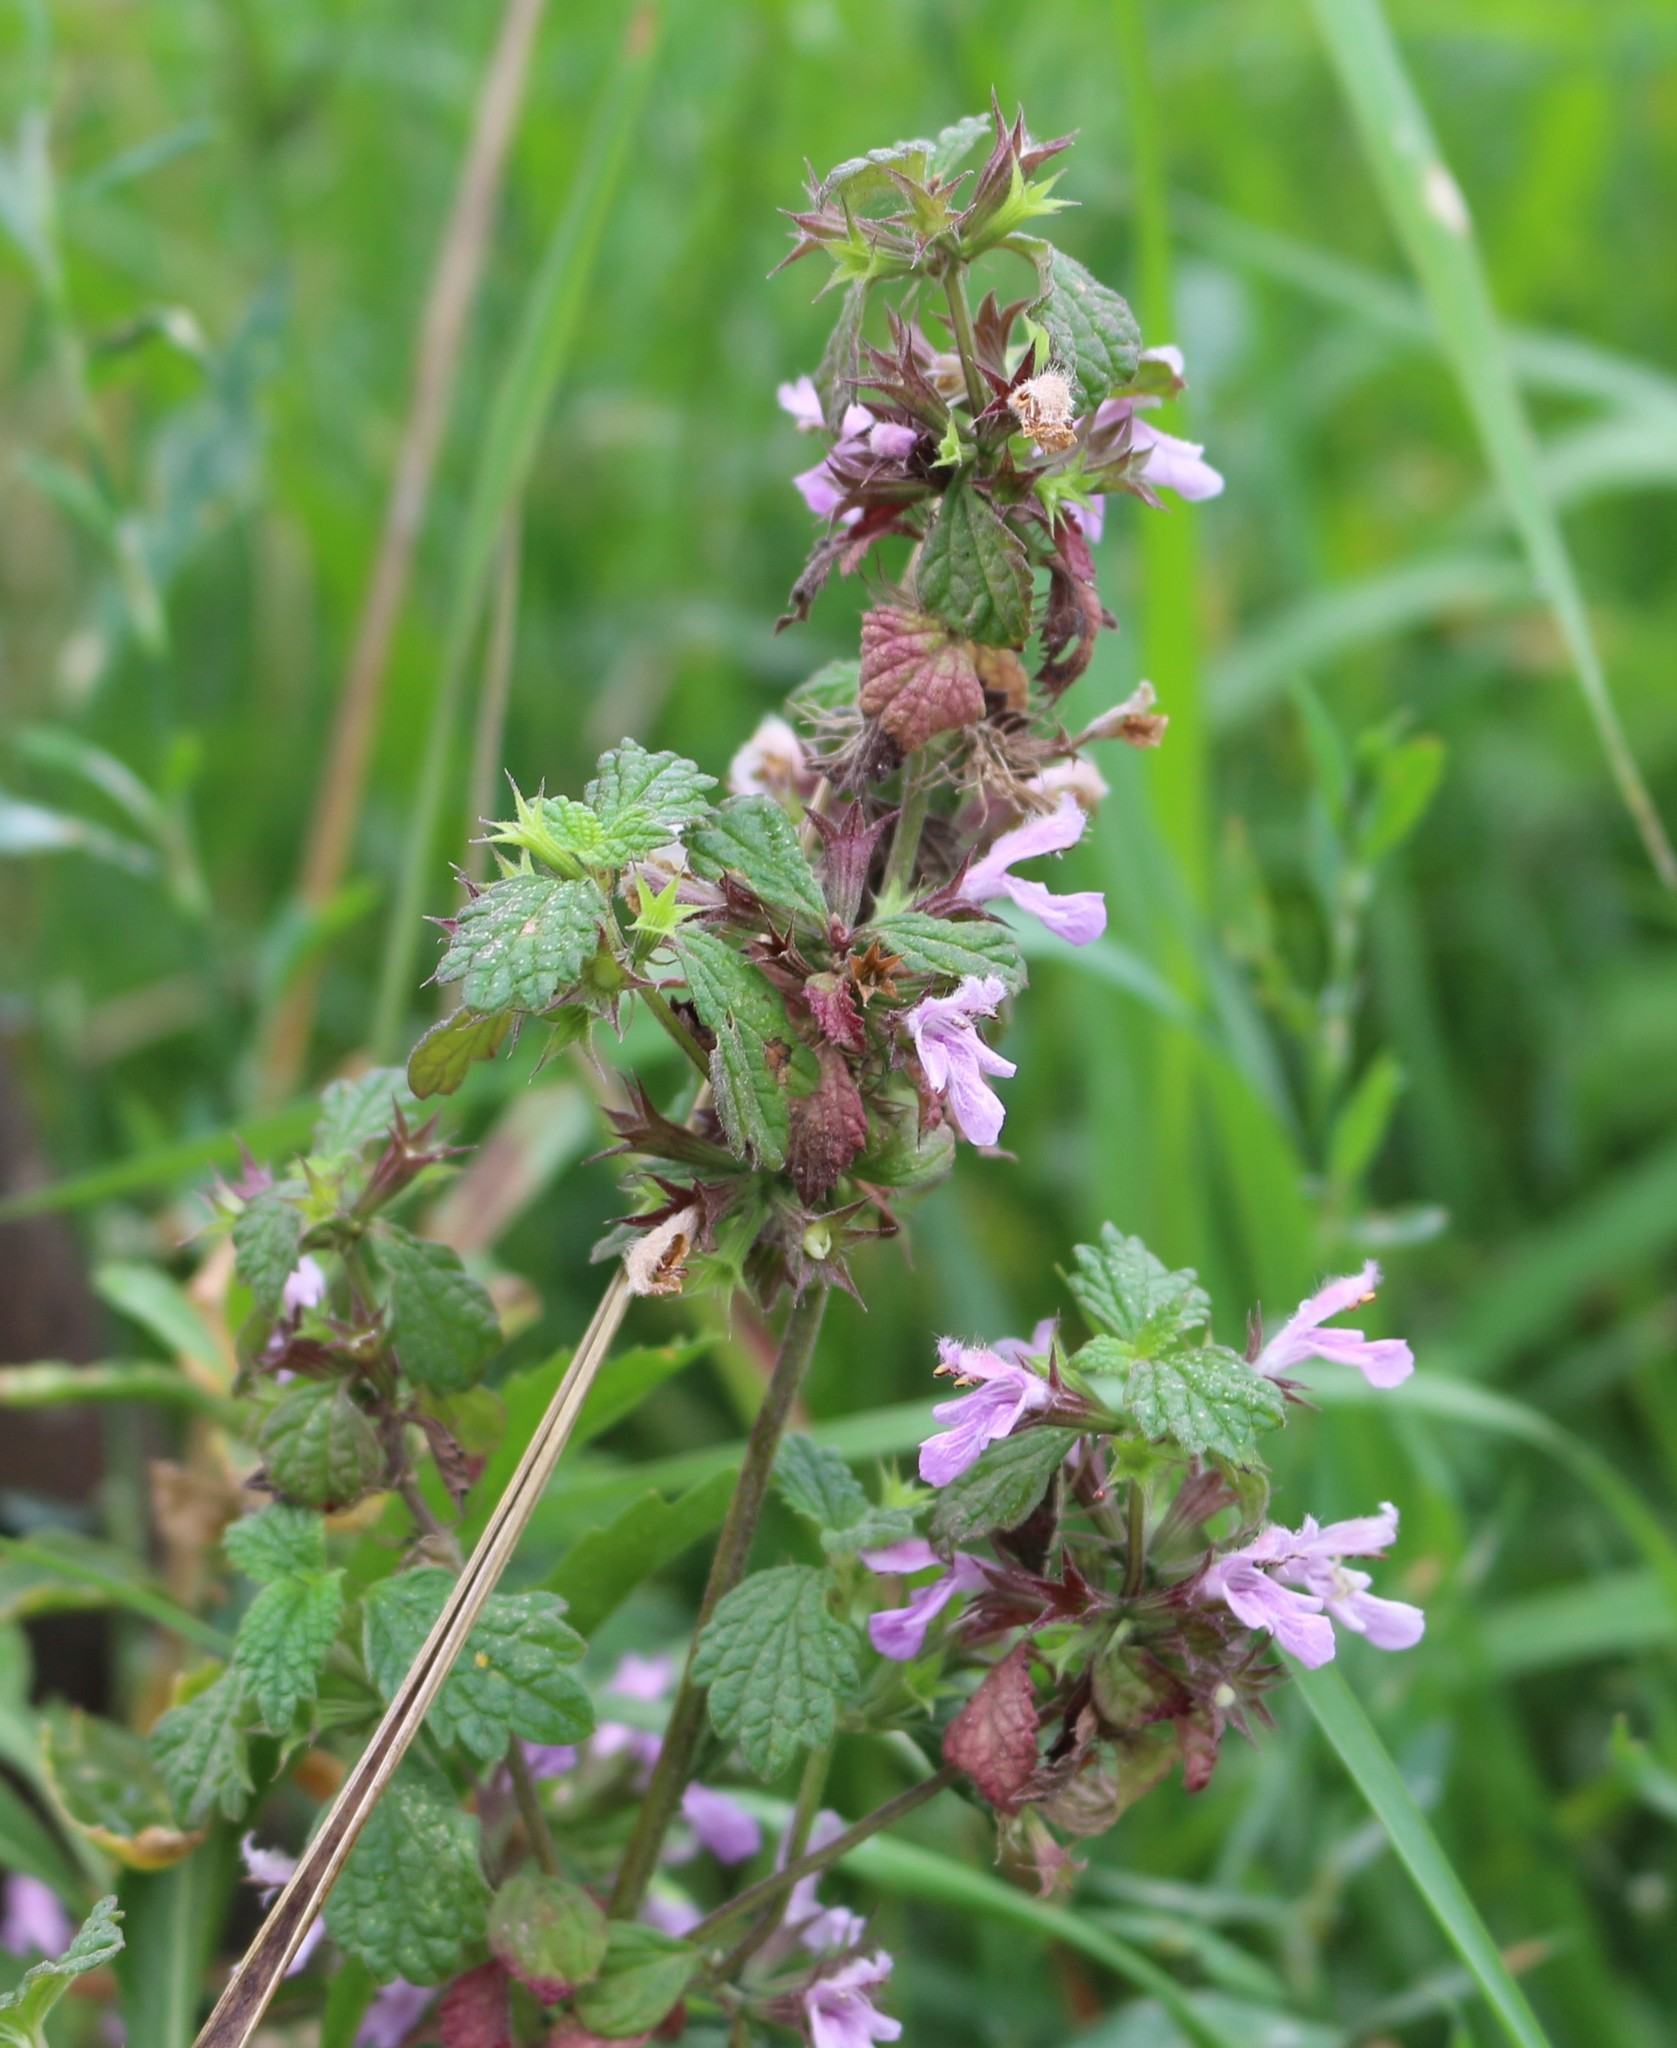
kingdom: Plantae
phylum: Tracheophyta
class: Magnoliopsida
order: Lamiales
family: Lamiaceae
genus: Ballota
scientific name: Ballota nigra
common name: Black horehound
